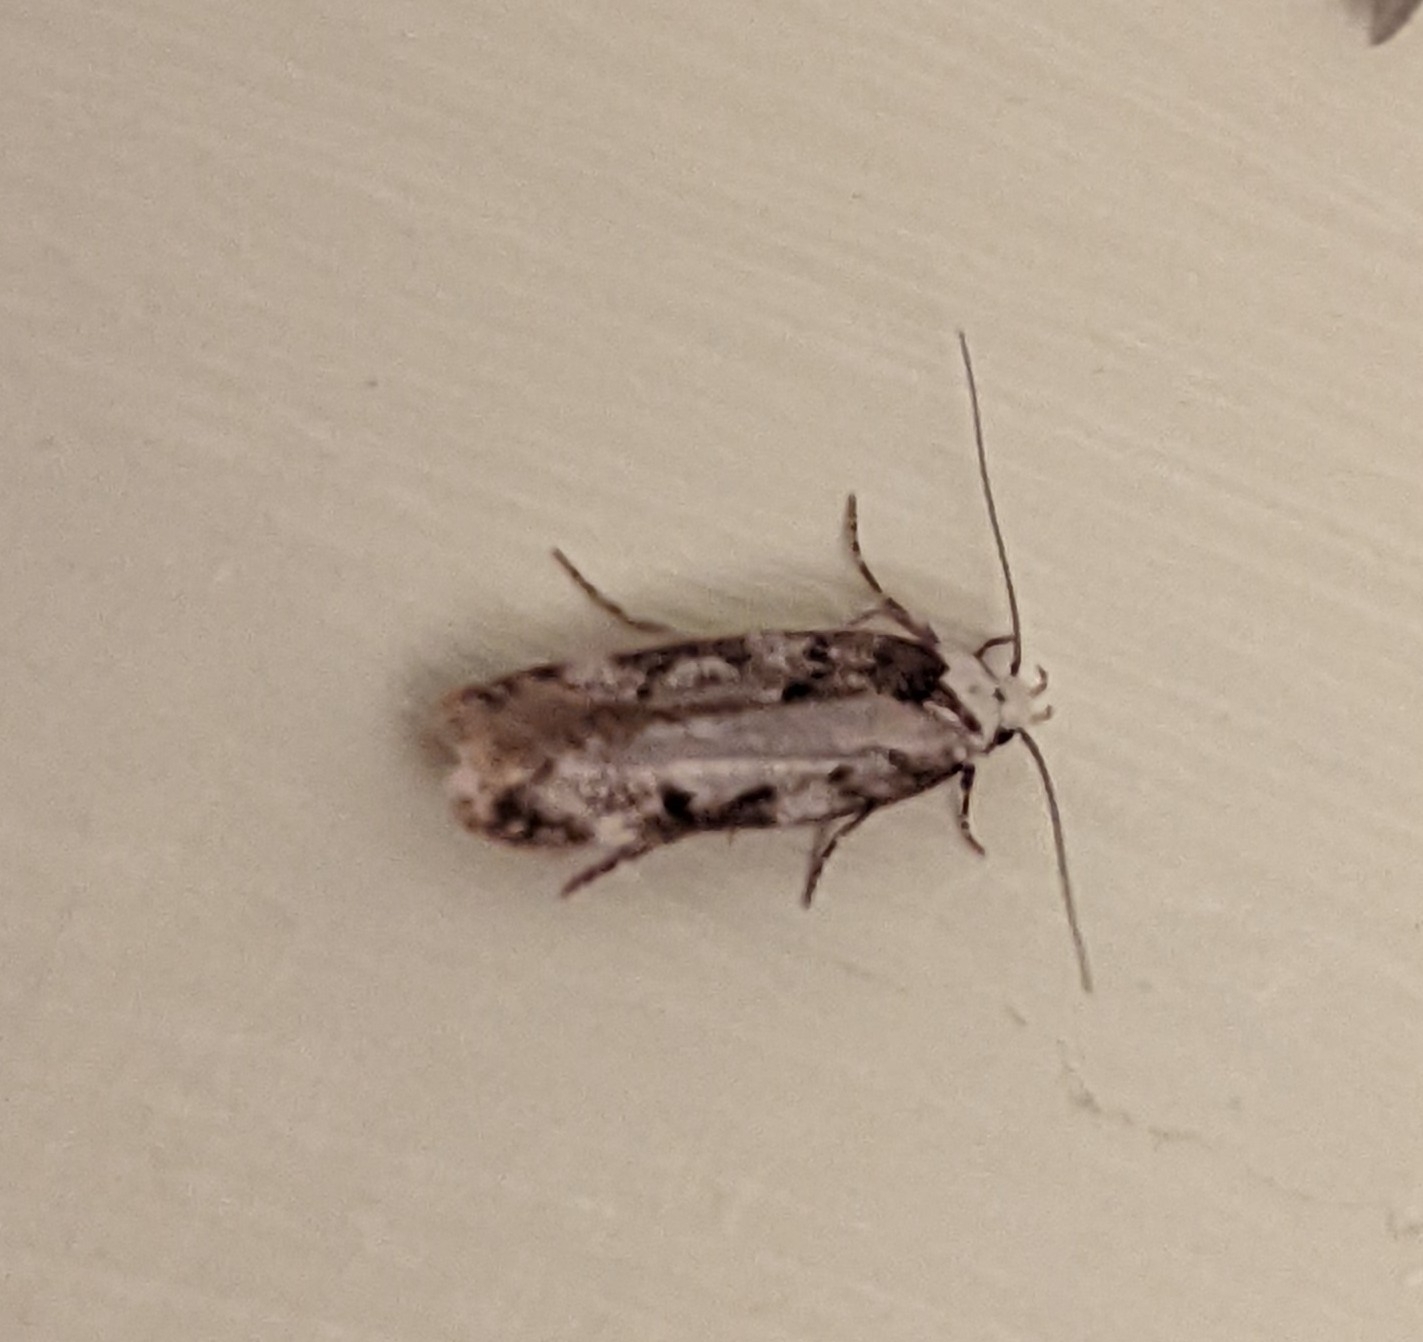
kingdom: Animalia
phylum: Arthropoda
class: Insecta
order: Lepidoptera
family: Oecophoridae
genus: Endrosis
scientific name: Endrosis sarcitrella
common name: White-shouldered house moth
